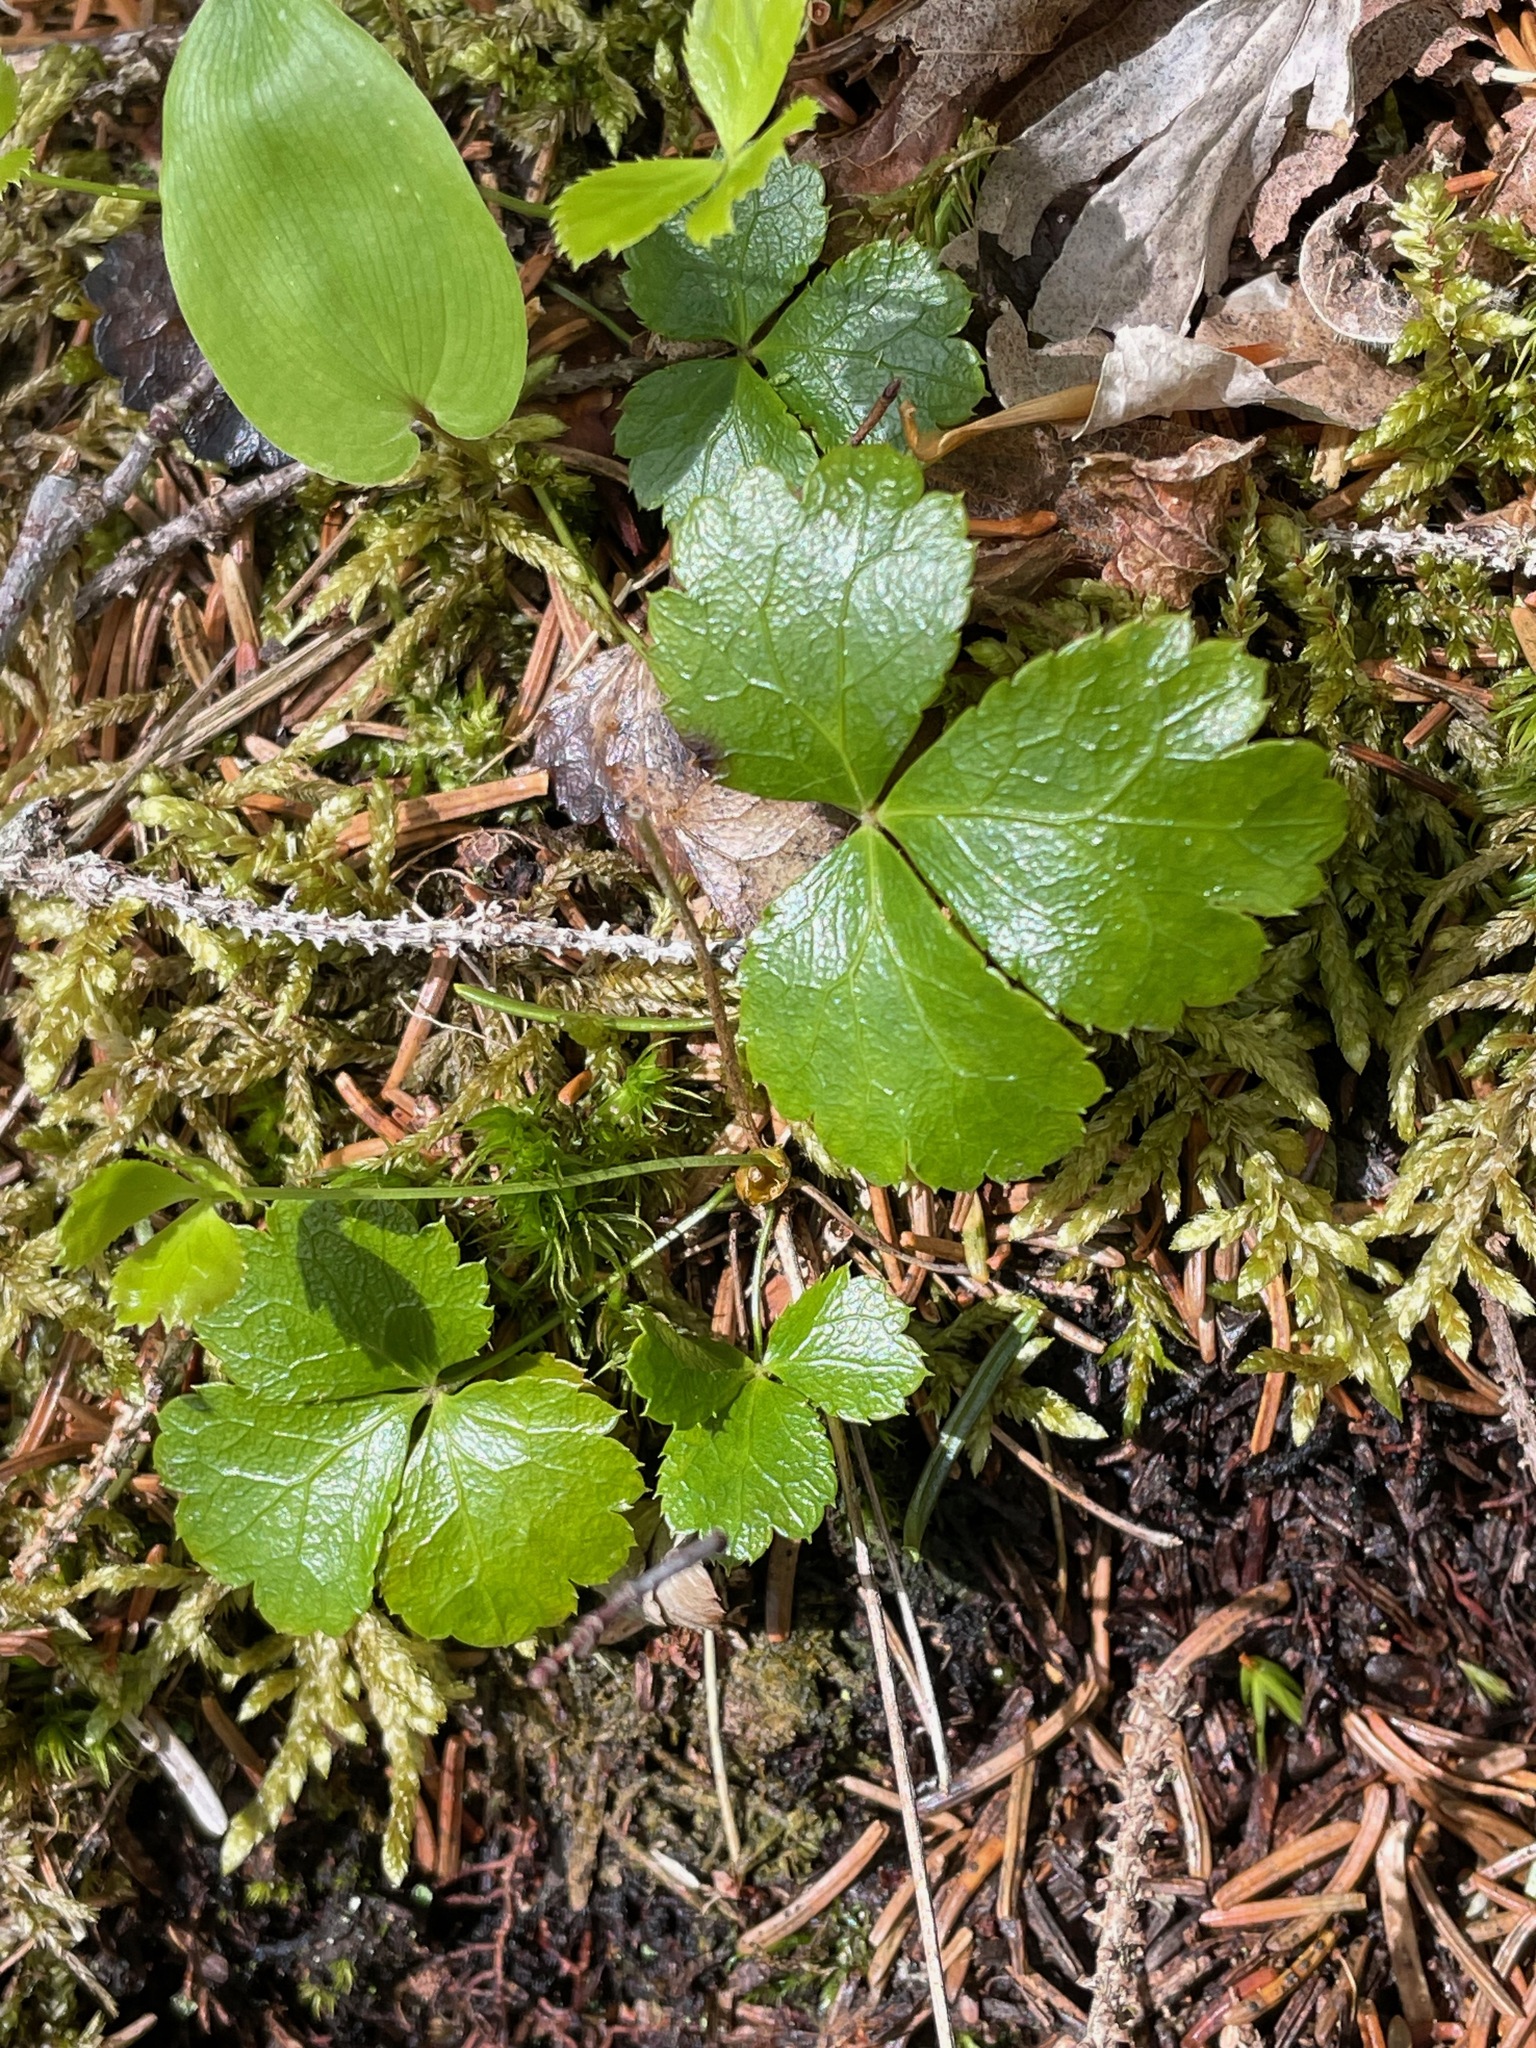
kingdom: Plantae
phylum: Tracheophyta
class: Magnoliopsida
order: Ranunculales
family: Ranunculaceae
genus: Coptis
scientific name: Coptis trifolia
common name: Canker-root
